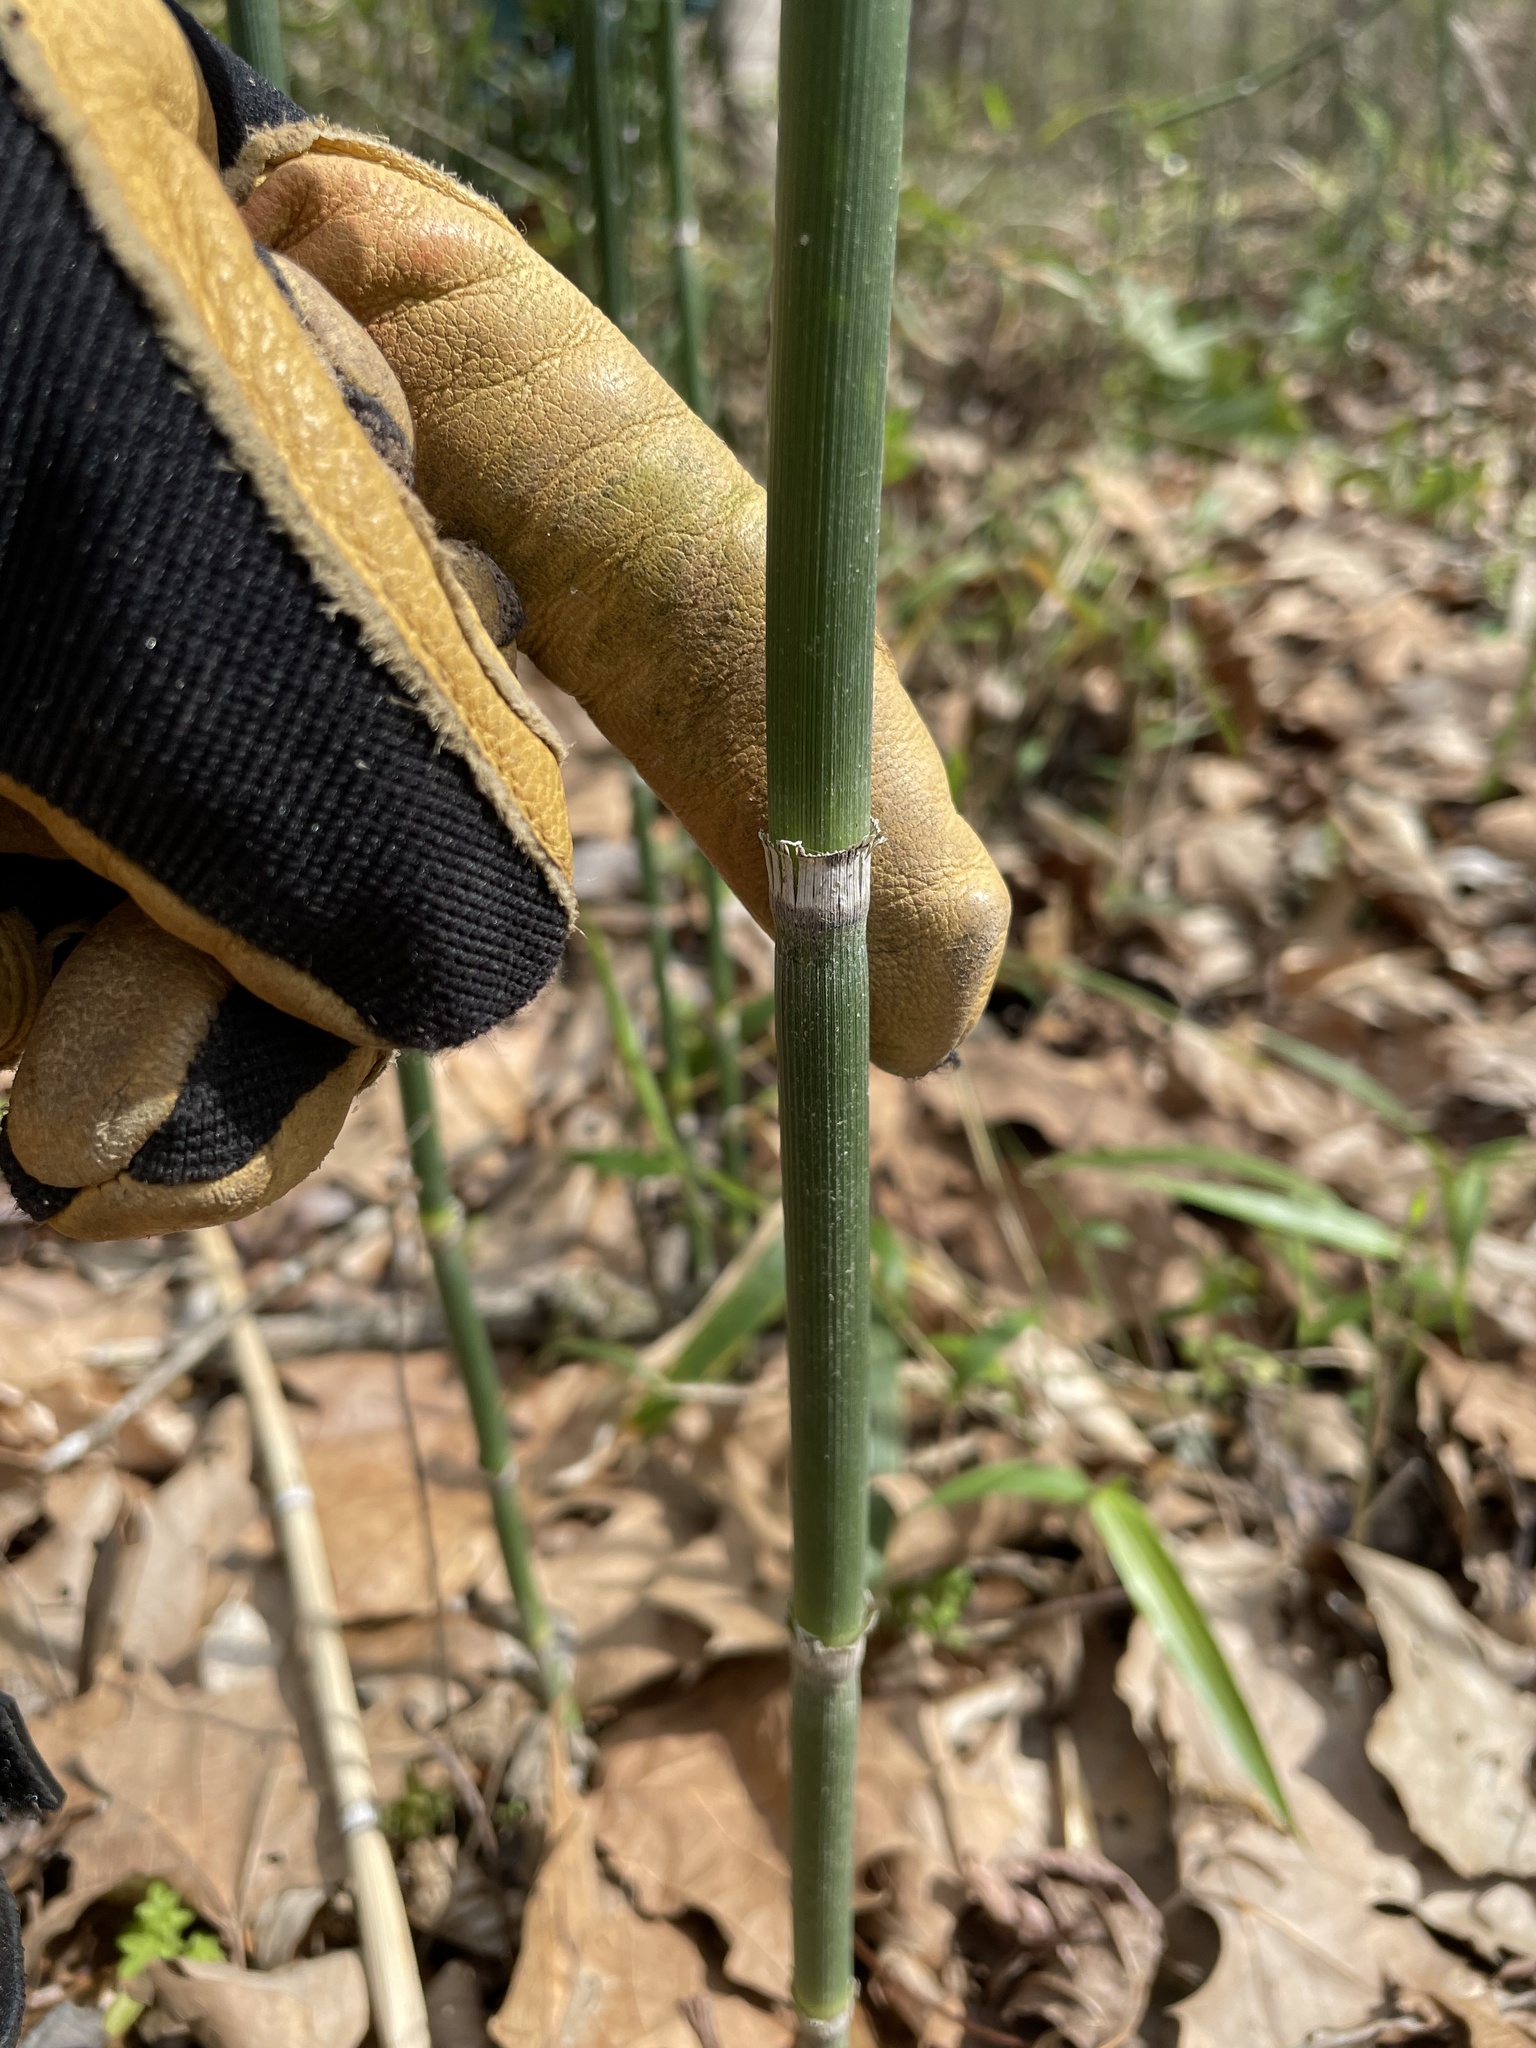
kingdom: Plantae
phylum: Tracheophyta
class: Polypodiopsida
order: Equisetales
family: Equisetaceae
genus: Equisetum
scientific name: Equisetum hyemale
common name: Rough horsetail
